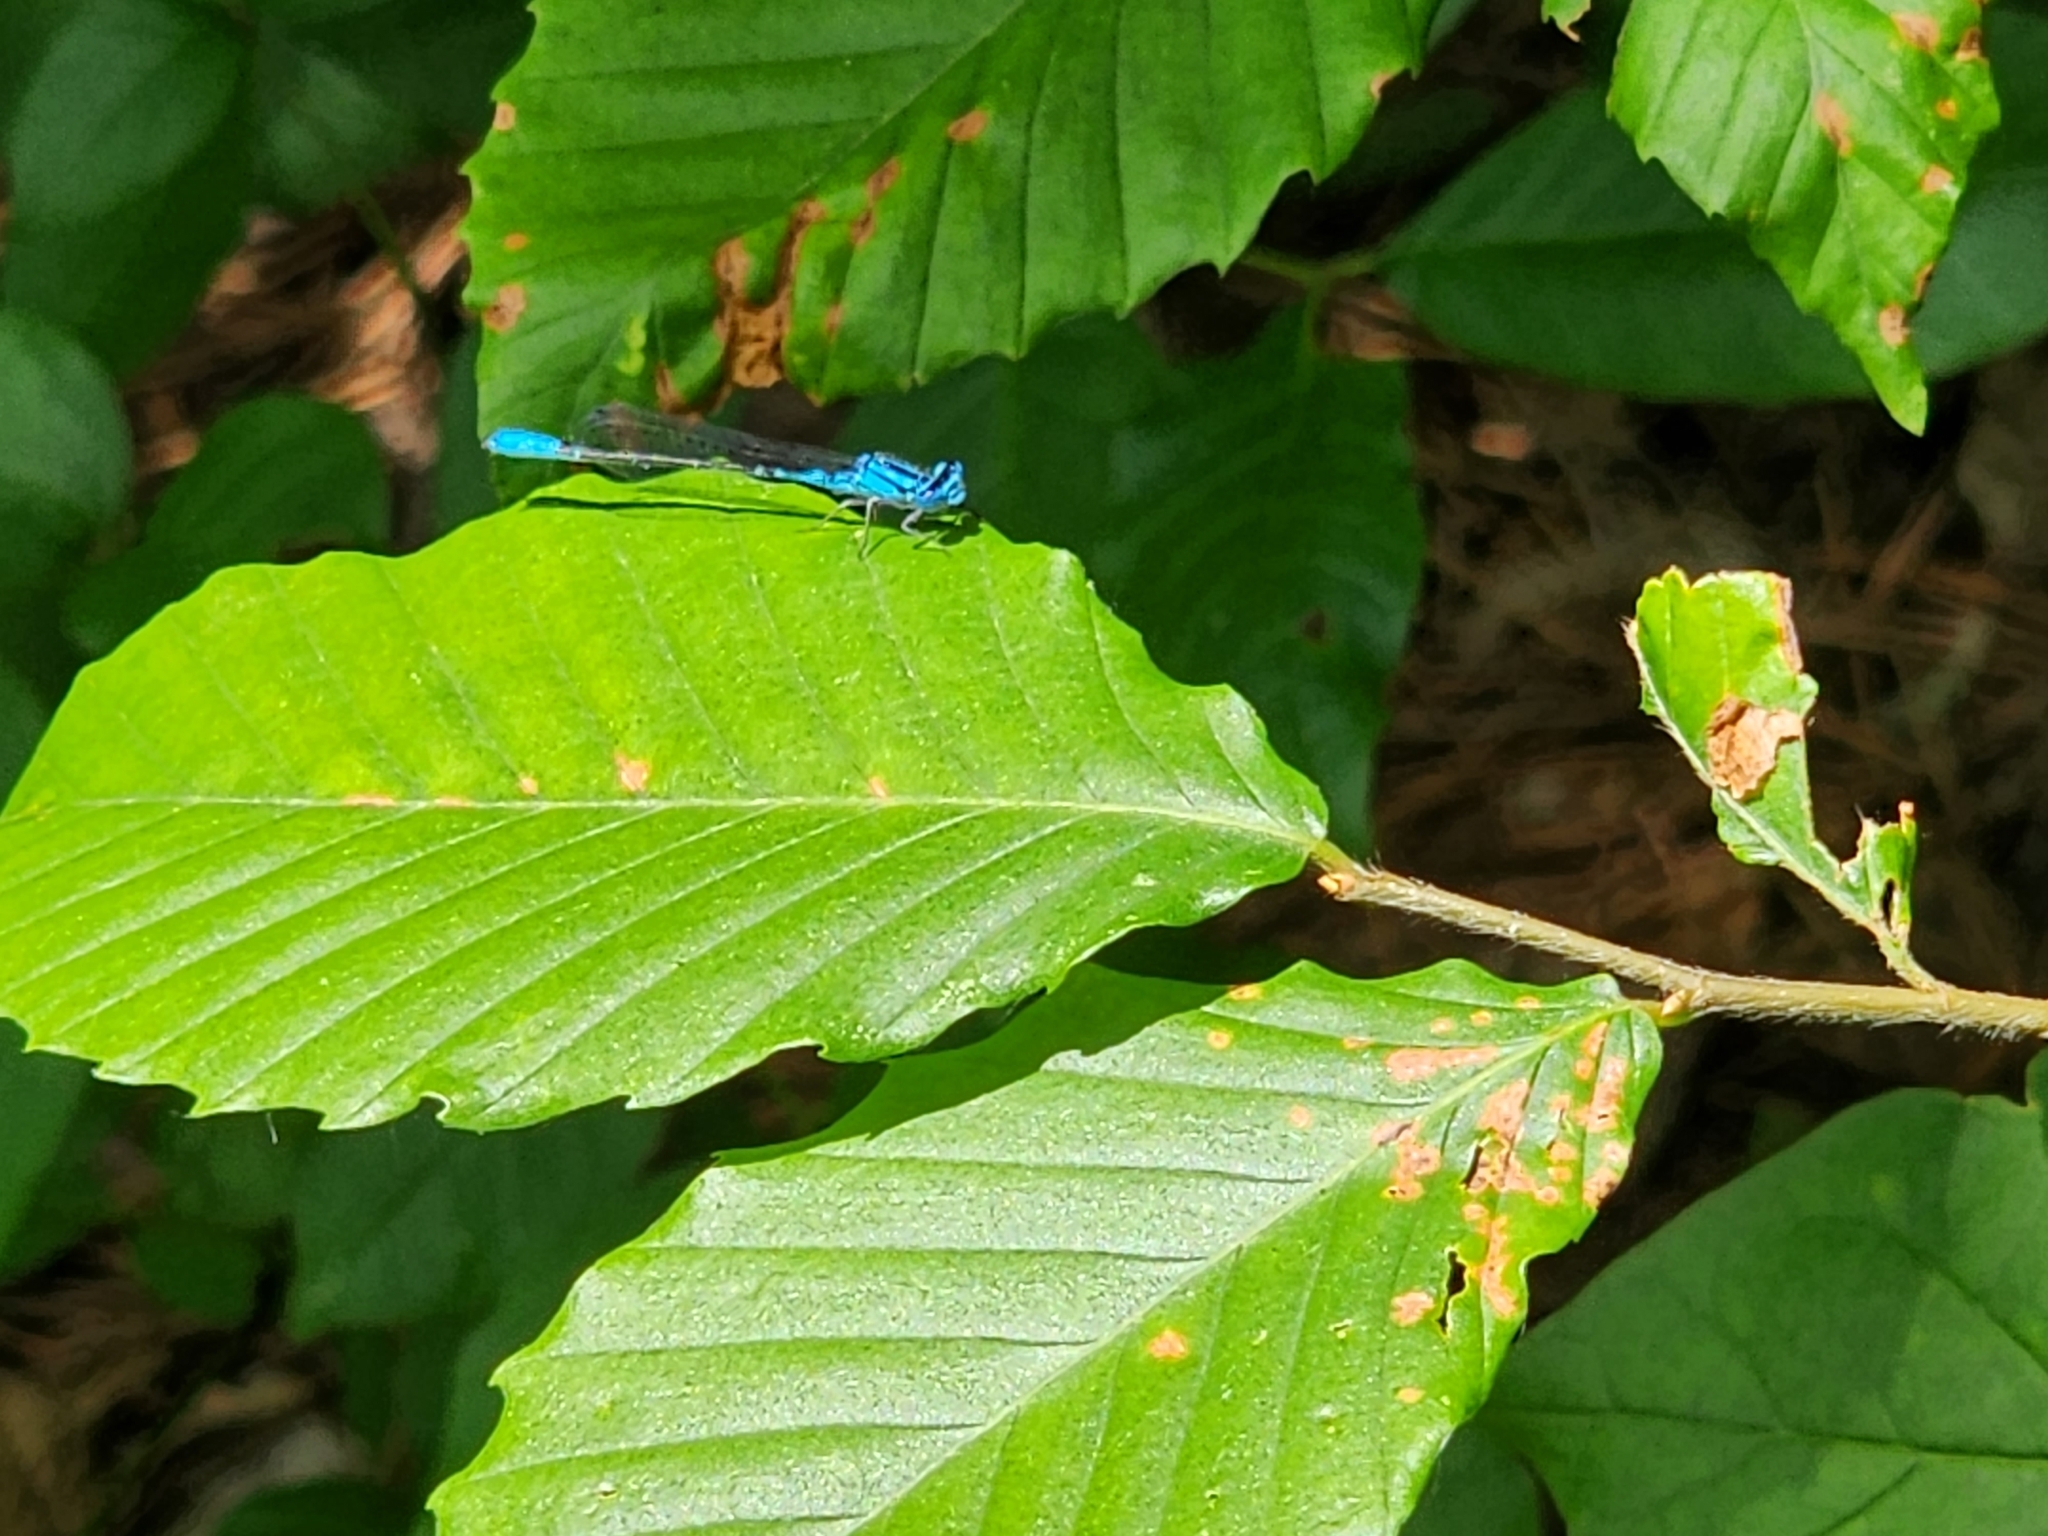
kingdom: Animalia
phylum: Arthropoda
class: Insecta
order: Odonata
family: Coenagrionidae
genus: Enallagma
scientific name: Enallagma aspersum
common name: Azure bluet
